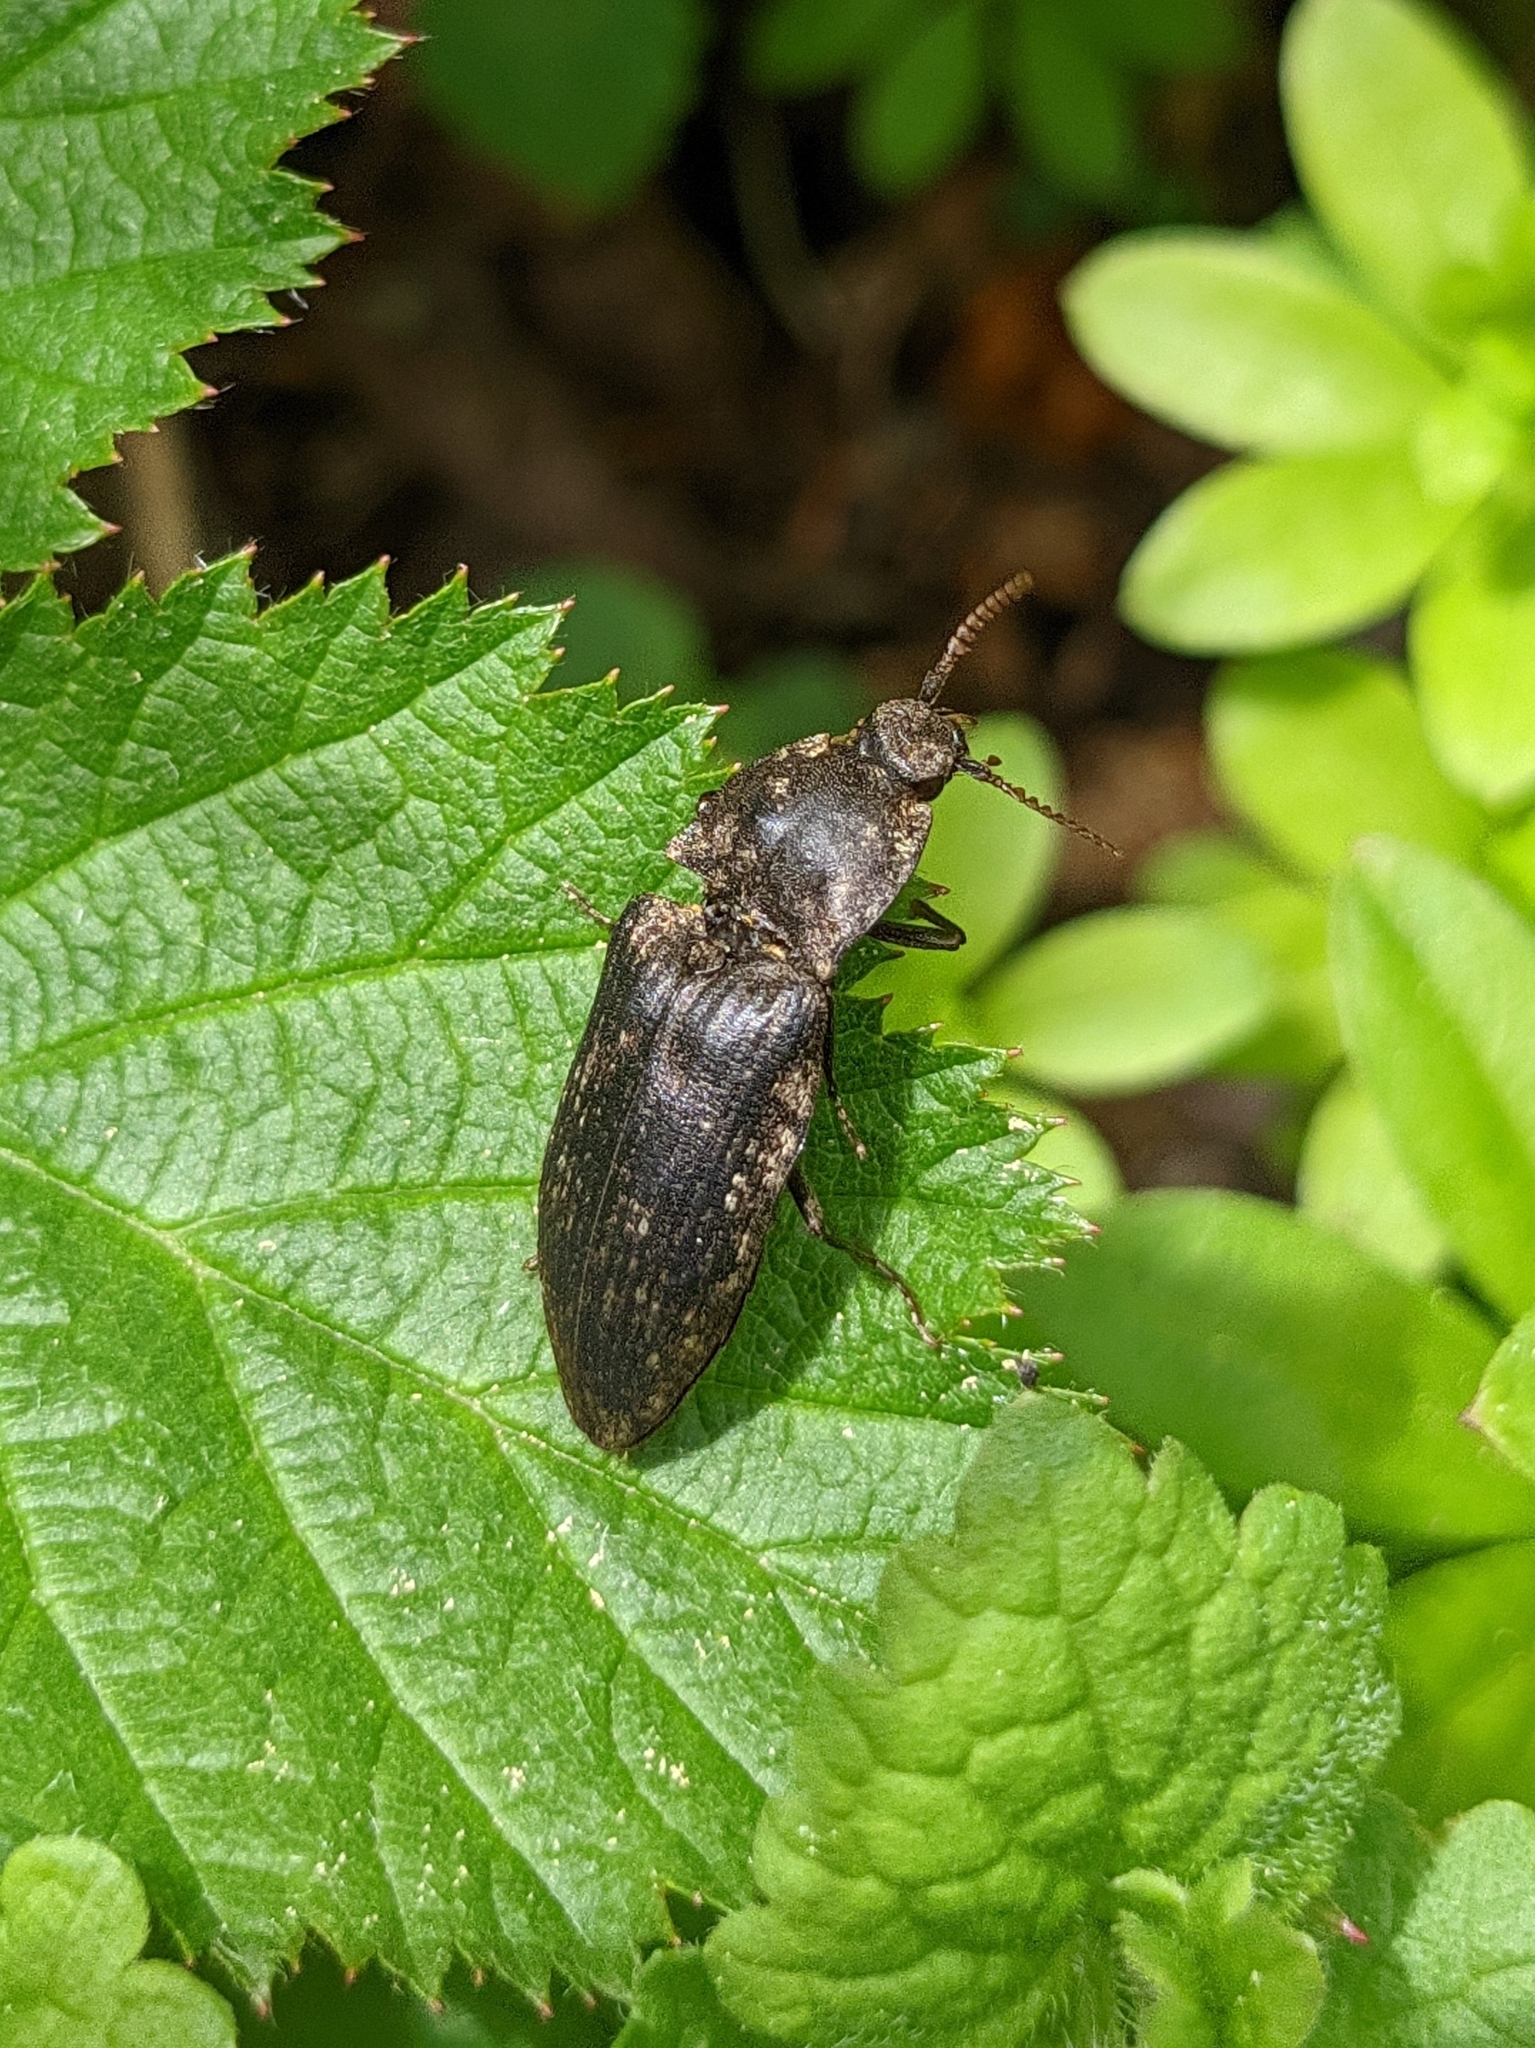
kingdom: Animalia
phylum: Arthropoda
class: Insecta
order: Coleoptera
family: Elateridae
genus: Agrypnus
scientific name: Agrypnus murinus
